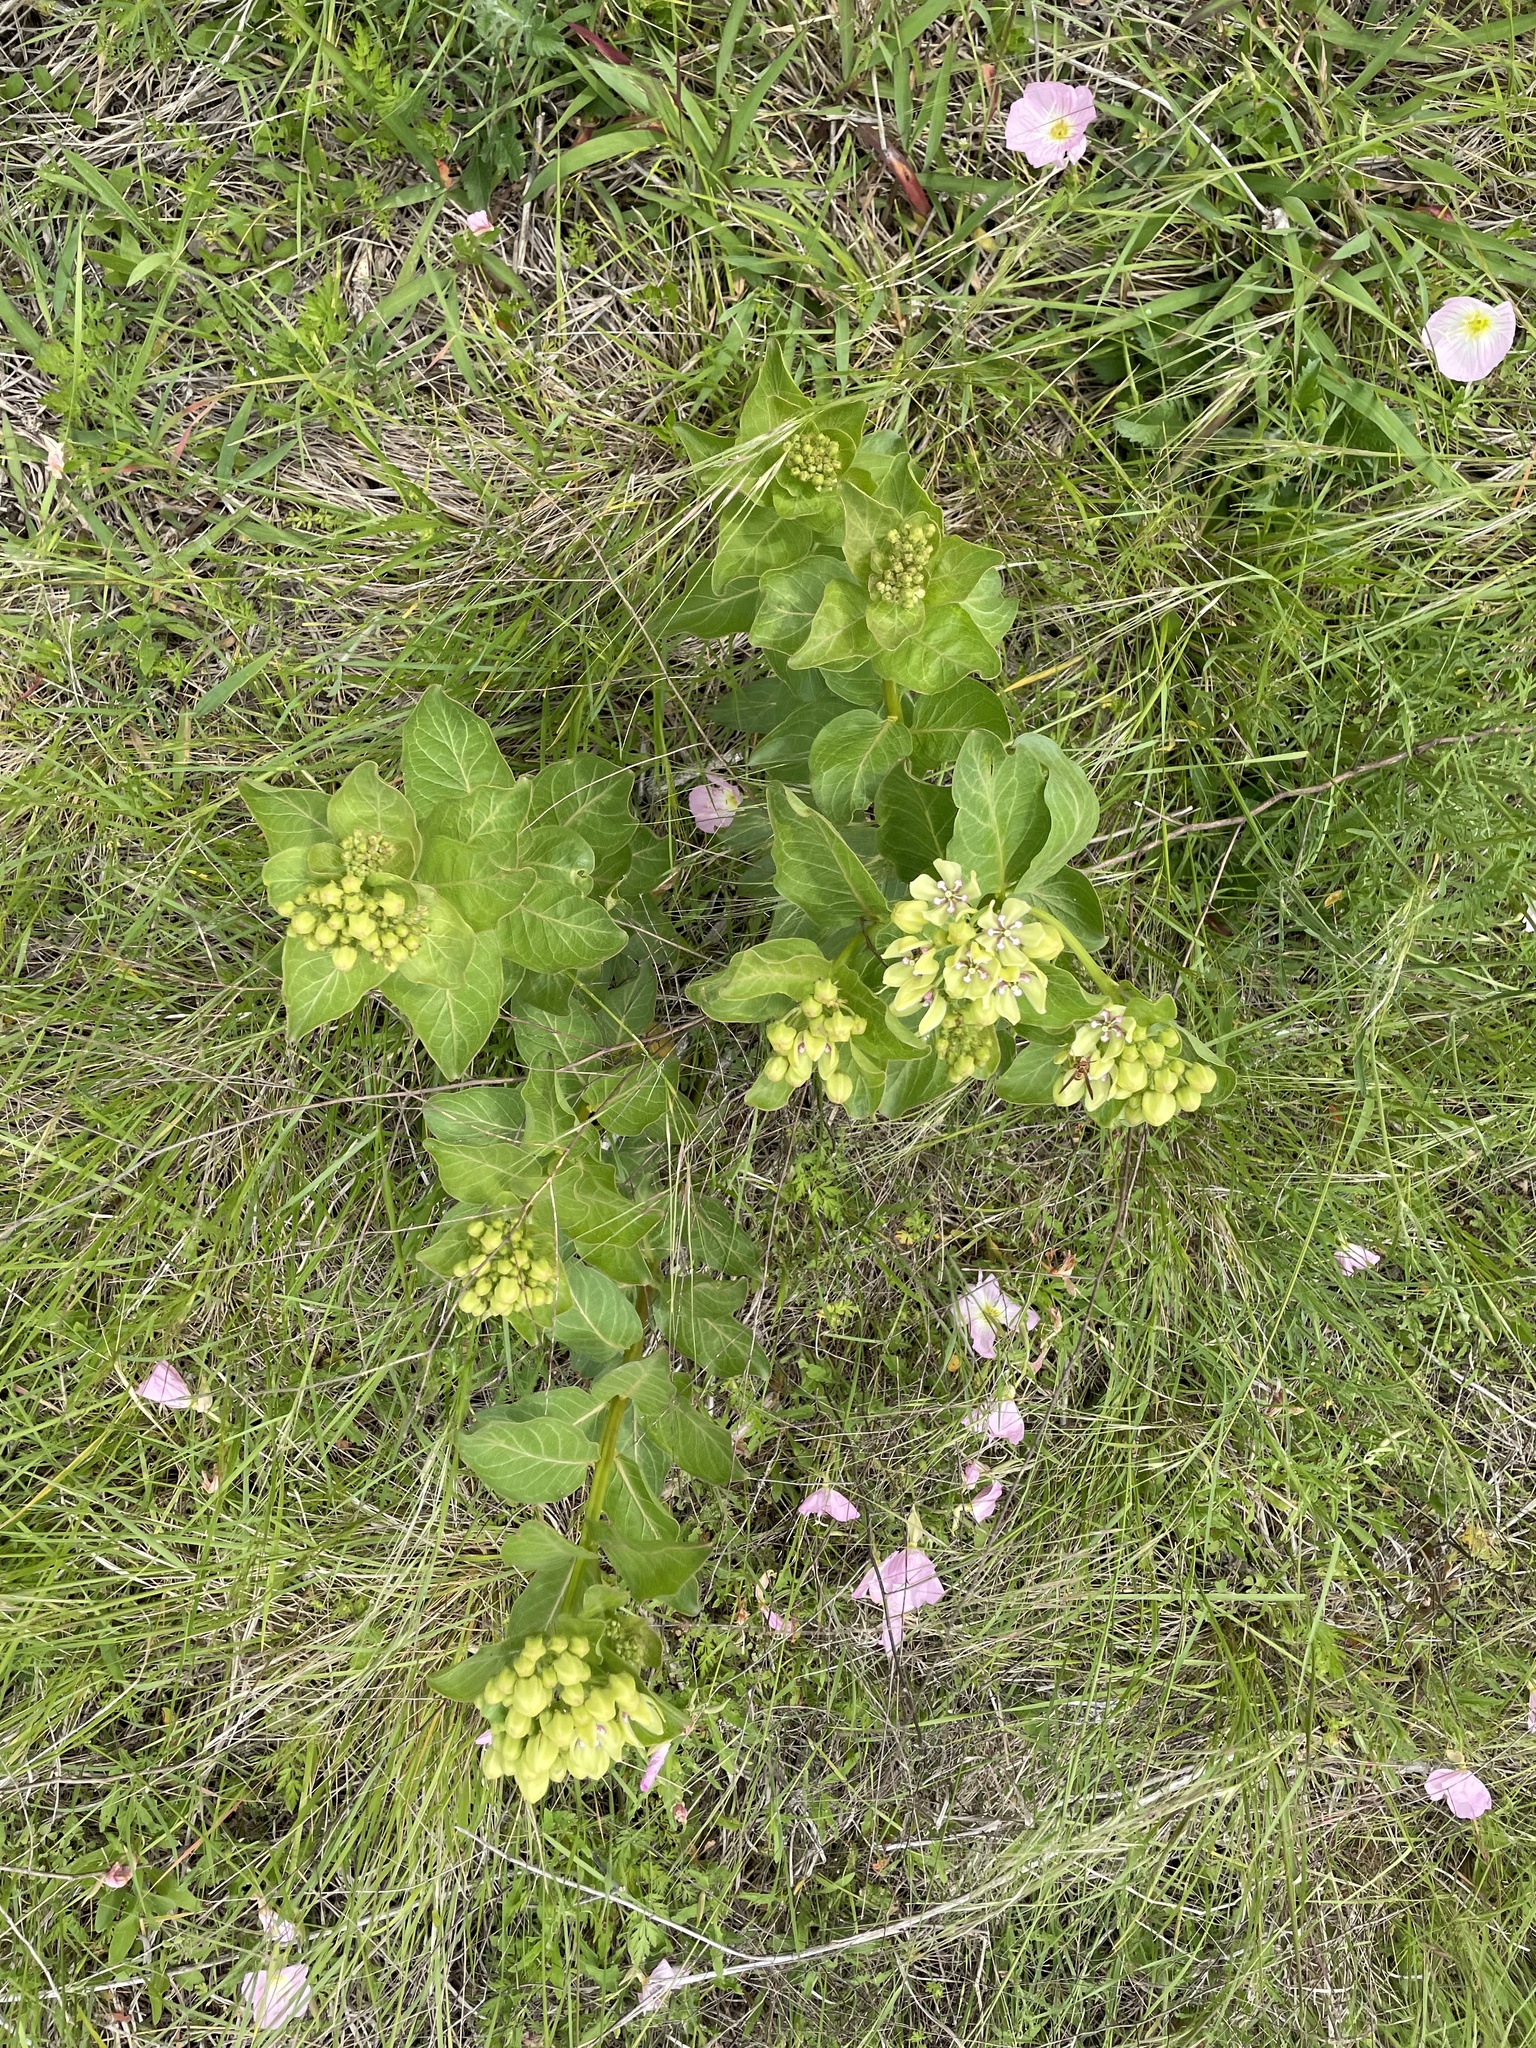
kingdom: Plantae
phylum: Tracheophyta
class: Magnoliopsida
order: Gentianales
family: Apocynaceae
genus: Asclepias
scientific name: Asclepias viridis
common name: Antelope-horns
